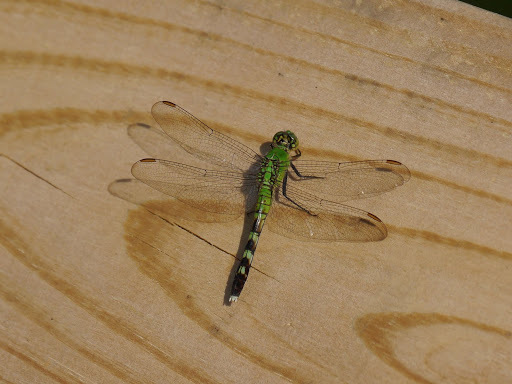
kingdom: Animalia
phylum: Arthropoda
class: Insecta
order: Odonata
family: Libellulidae
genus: Erythemis
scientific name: Erythemis simplicicollis
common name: Eastern pondhawk
